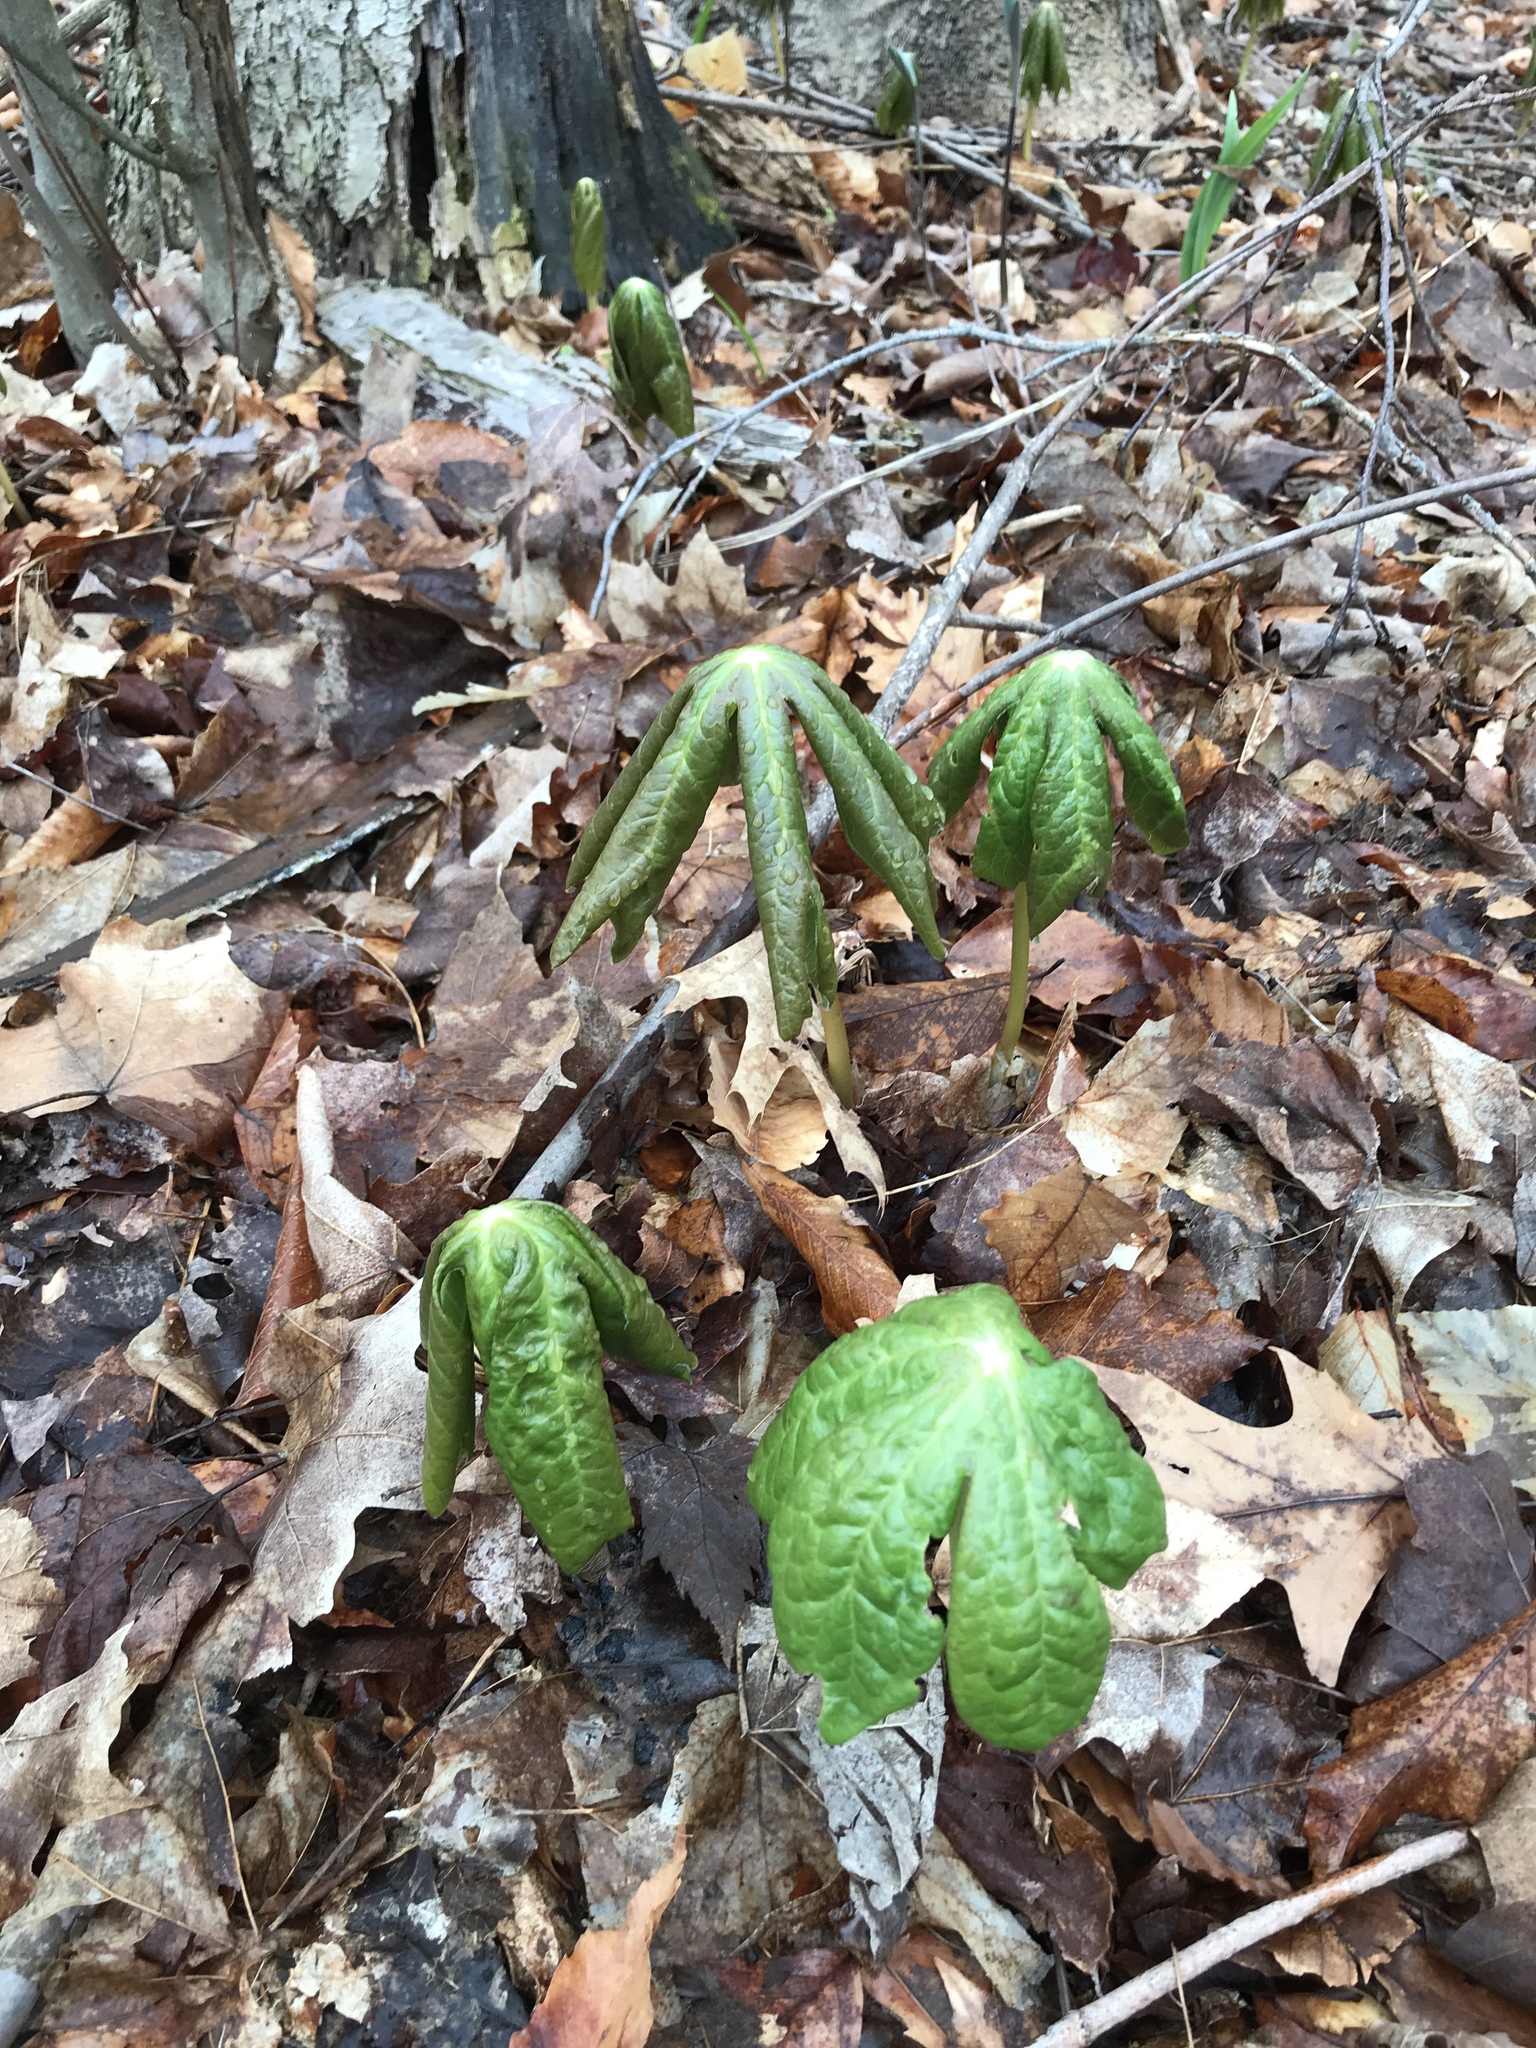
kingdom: Plantae
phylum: Tracheophyta
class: Magnoliopsida
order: Ranunculales
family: Berberidaceae
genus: Podophyllum
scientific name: Podophyllum peltatum
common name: Wild mandrake
